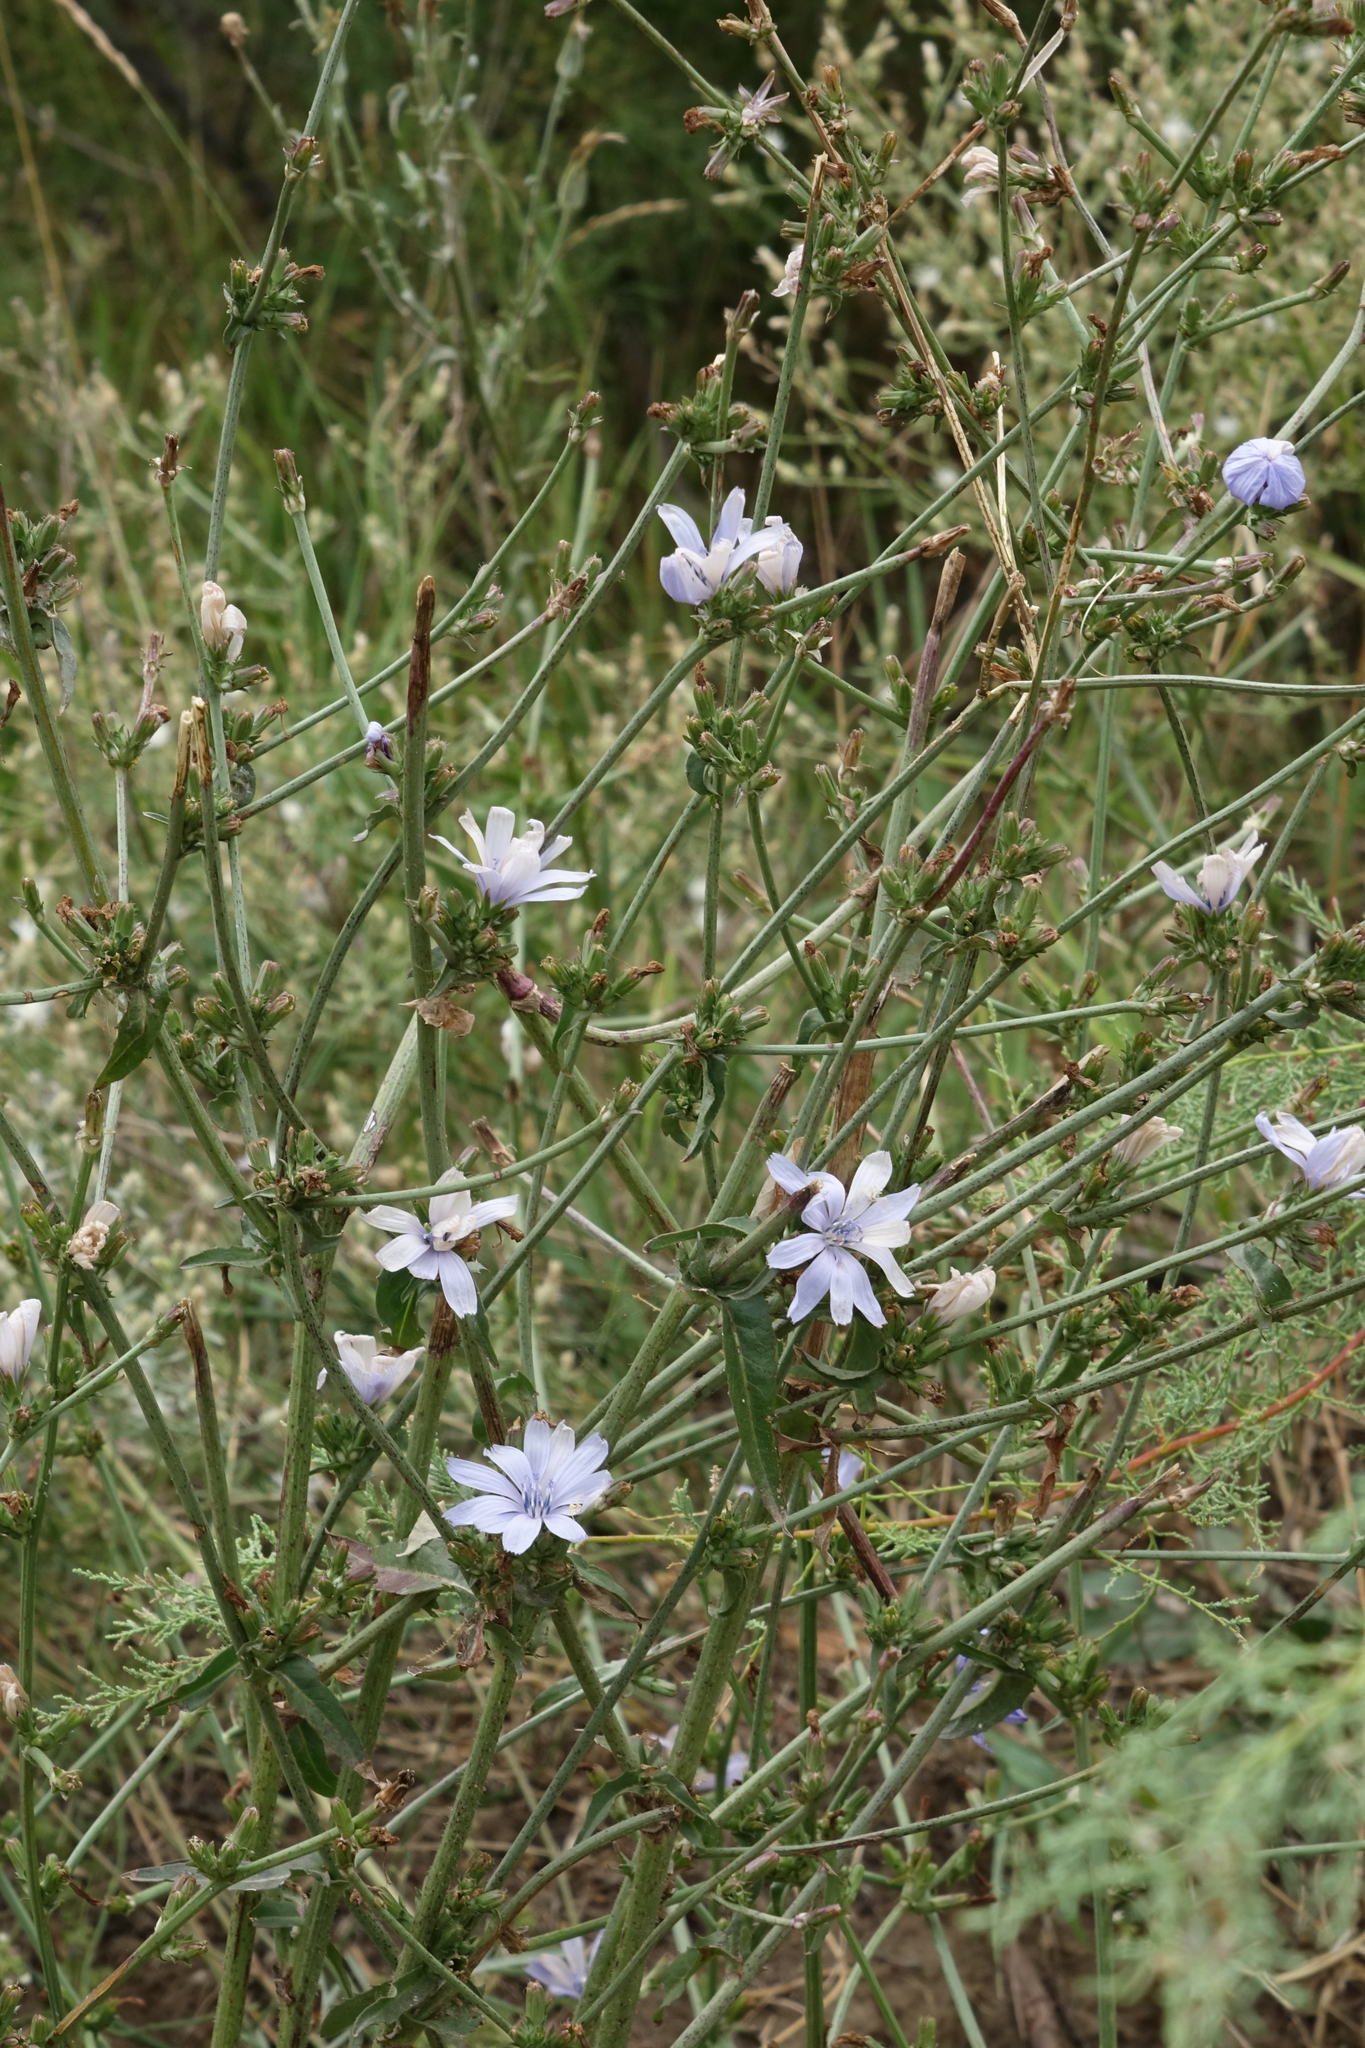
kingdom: Plantae
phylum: Tracheophyta
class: Magnoliopsida
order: Asterales
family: Asteraceae
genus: Cichorium
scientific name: Cichorium intybus
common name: Chicory
